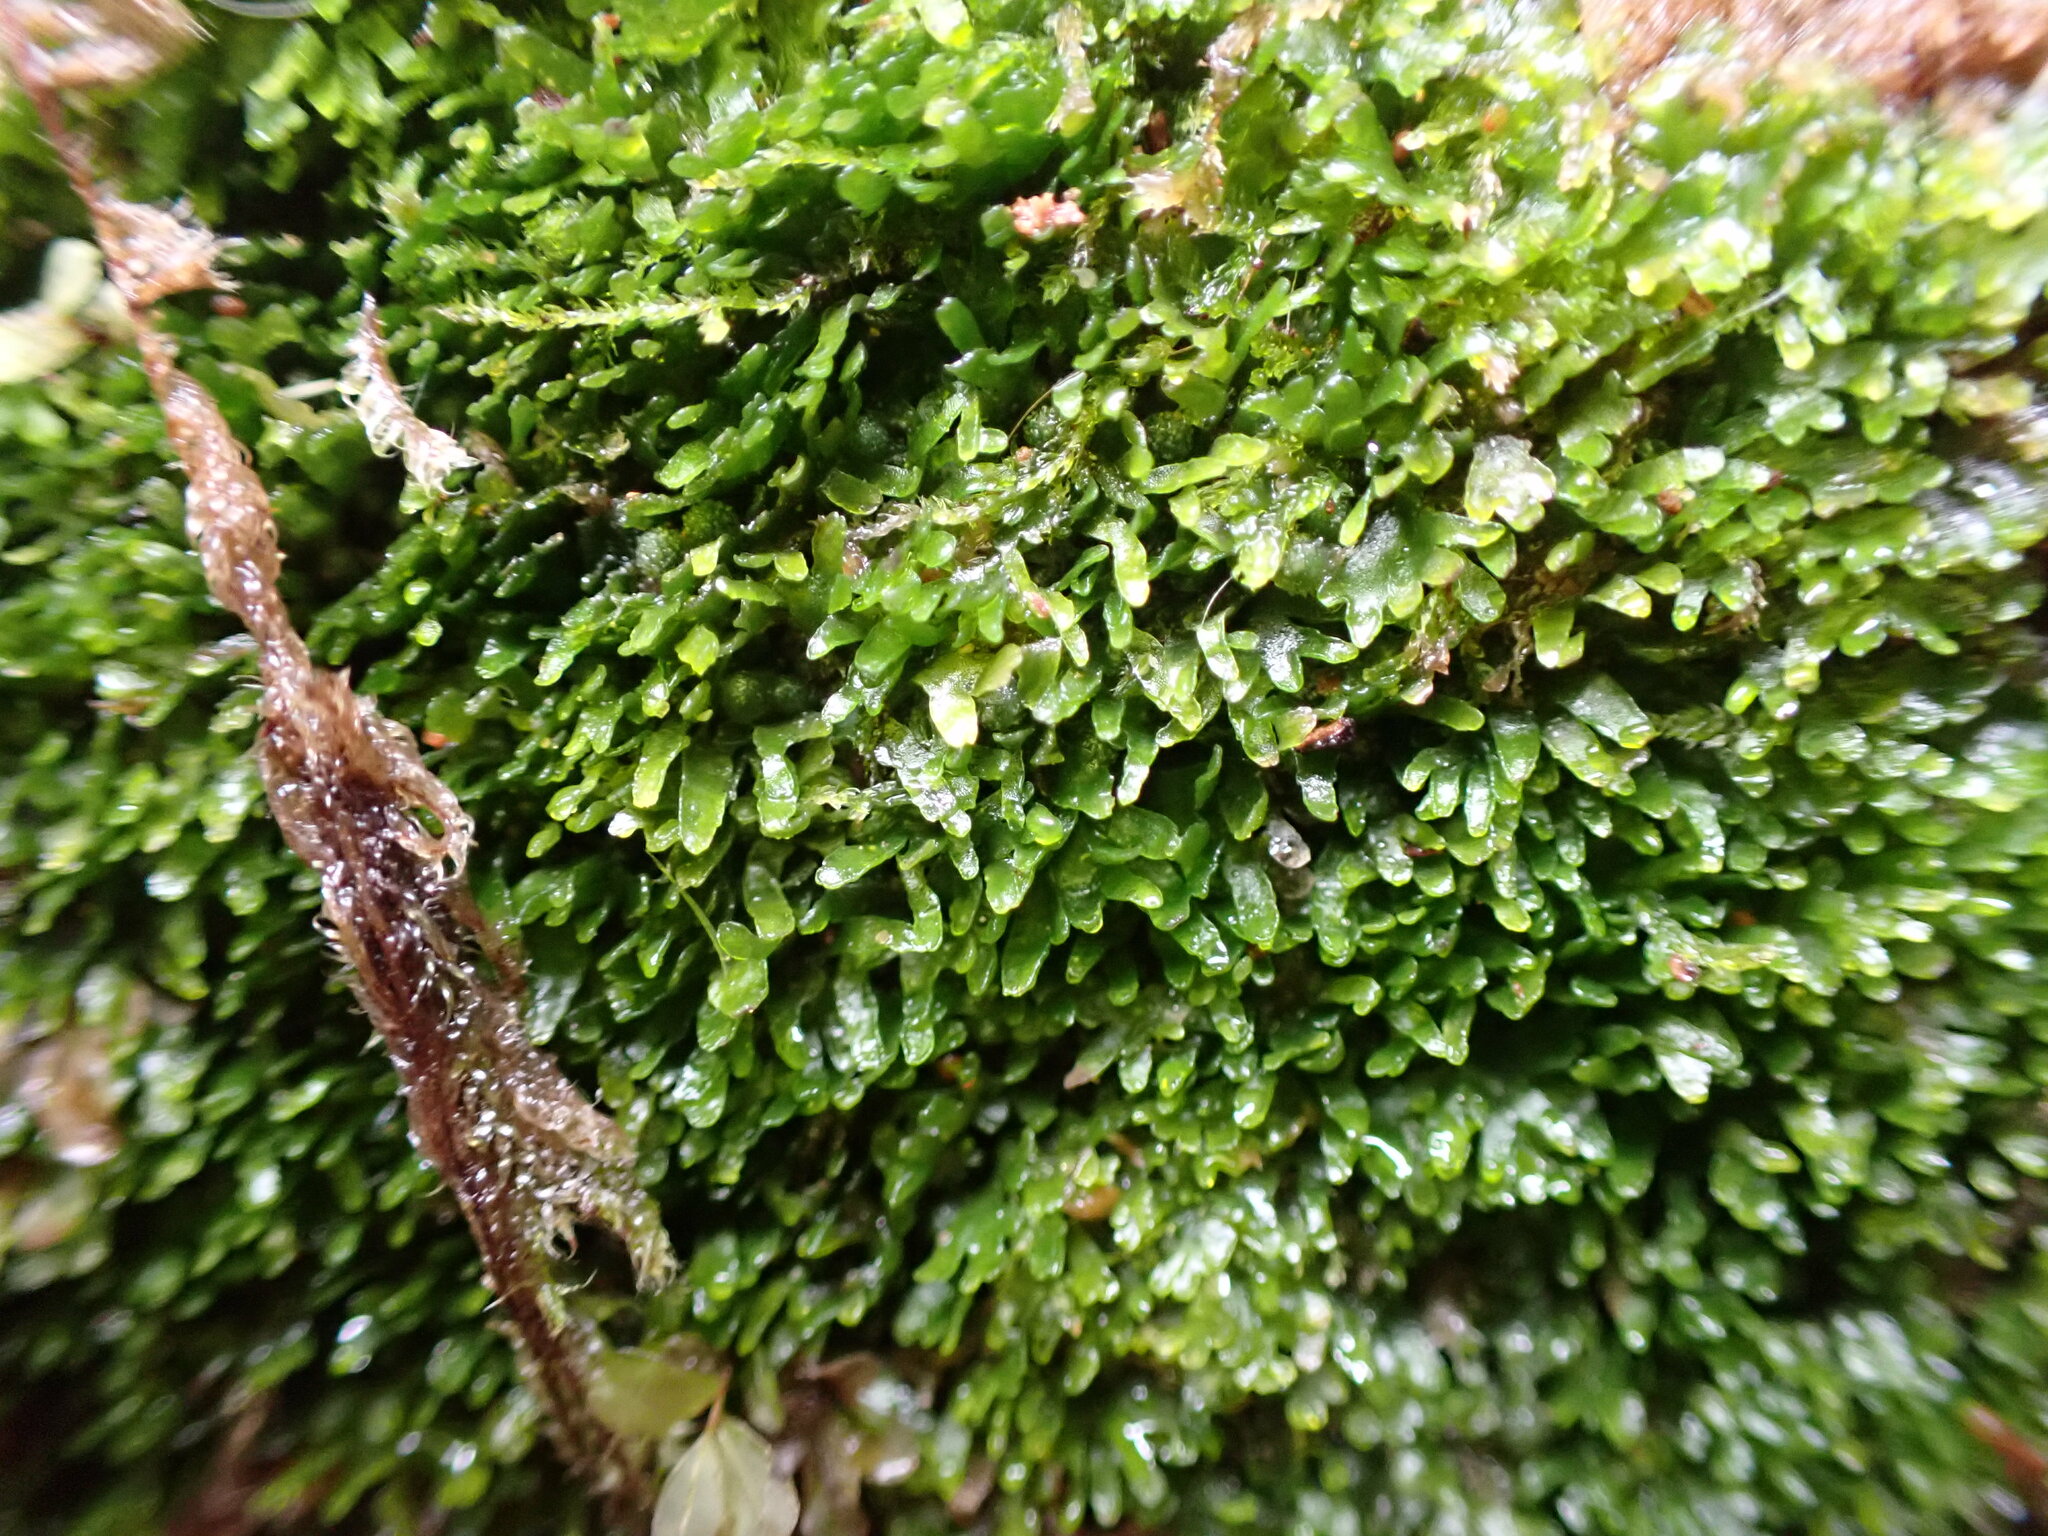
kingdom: Plantae
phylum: Marchantiophyta
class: Jungermanniopsida
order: Metzgeriales
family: Aneuraceae
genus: Riccardia
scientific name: Riccardia latifrons
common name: Bog germanderwort
